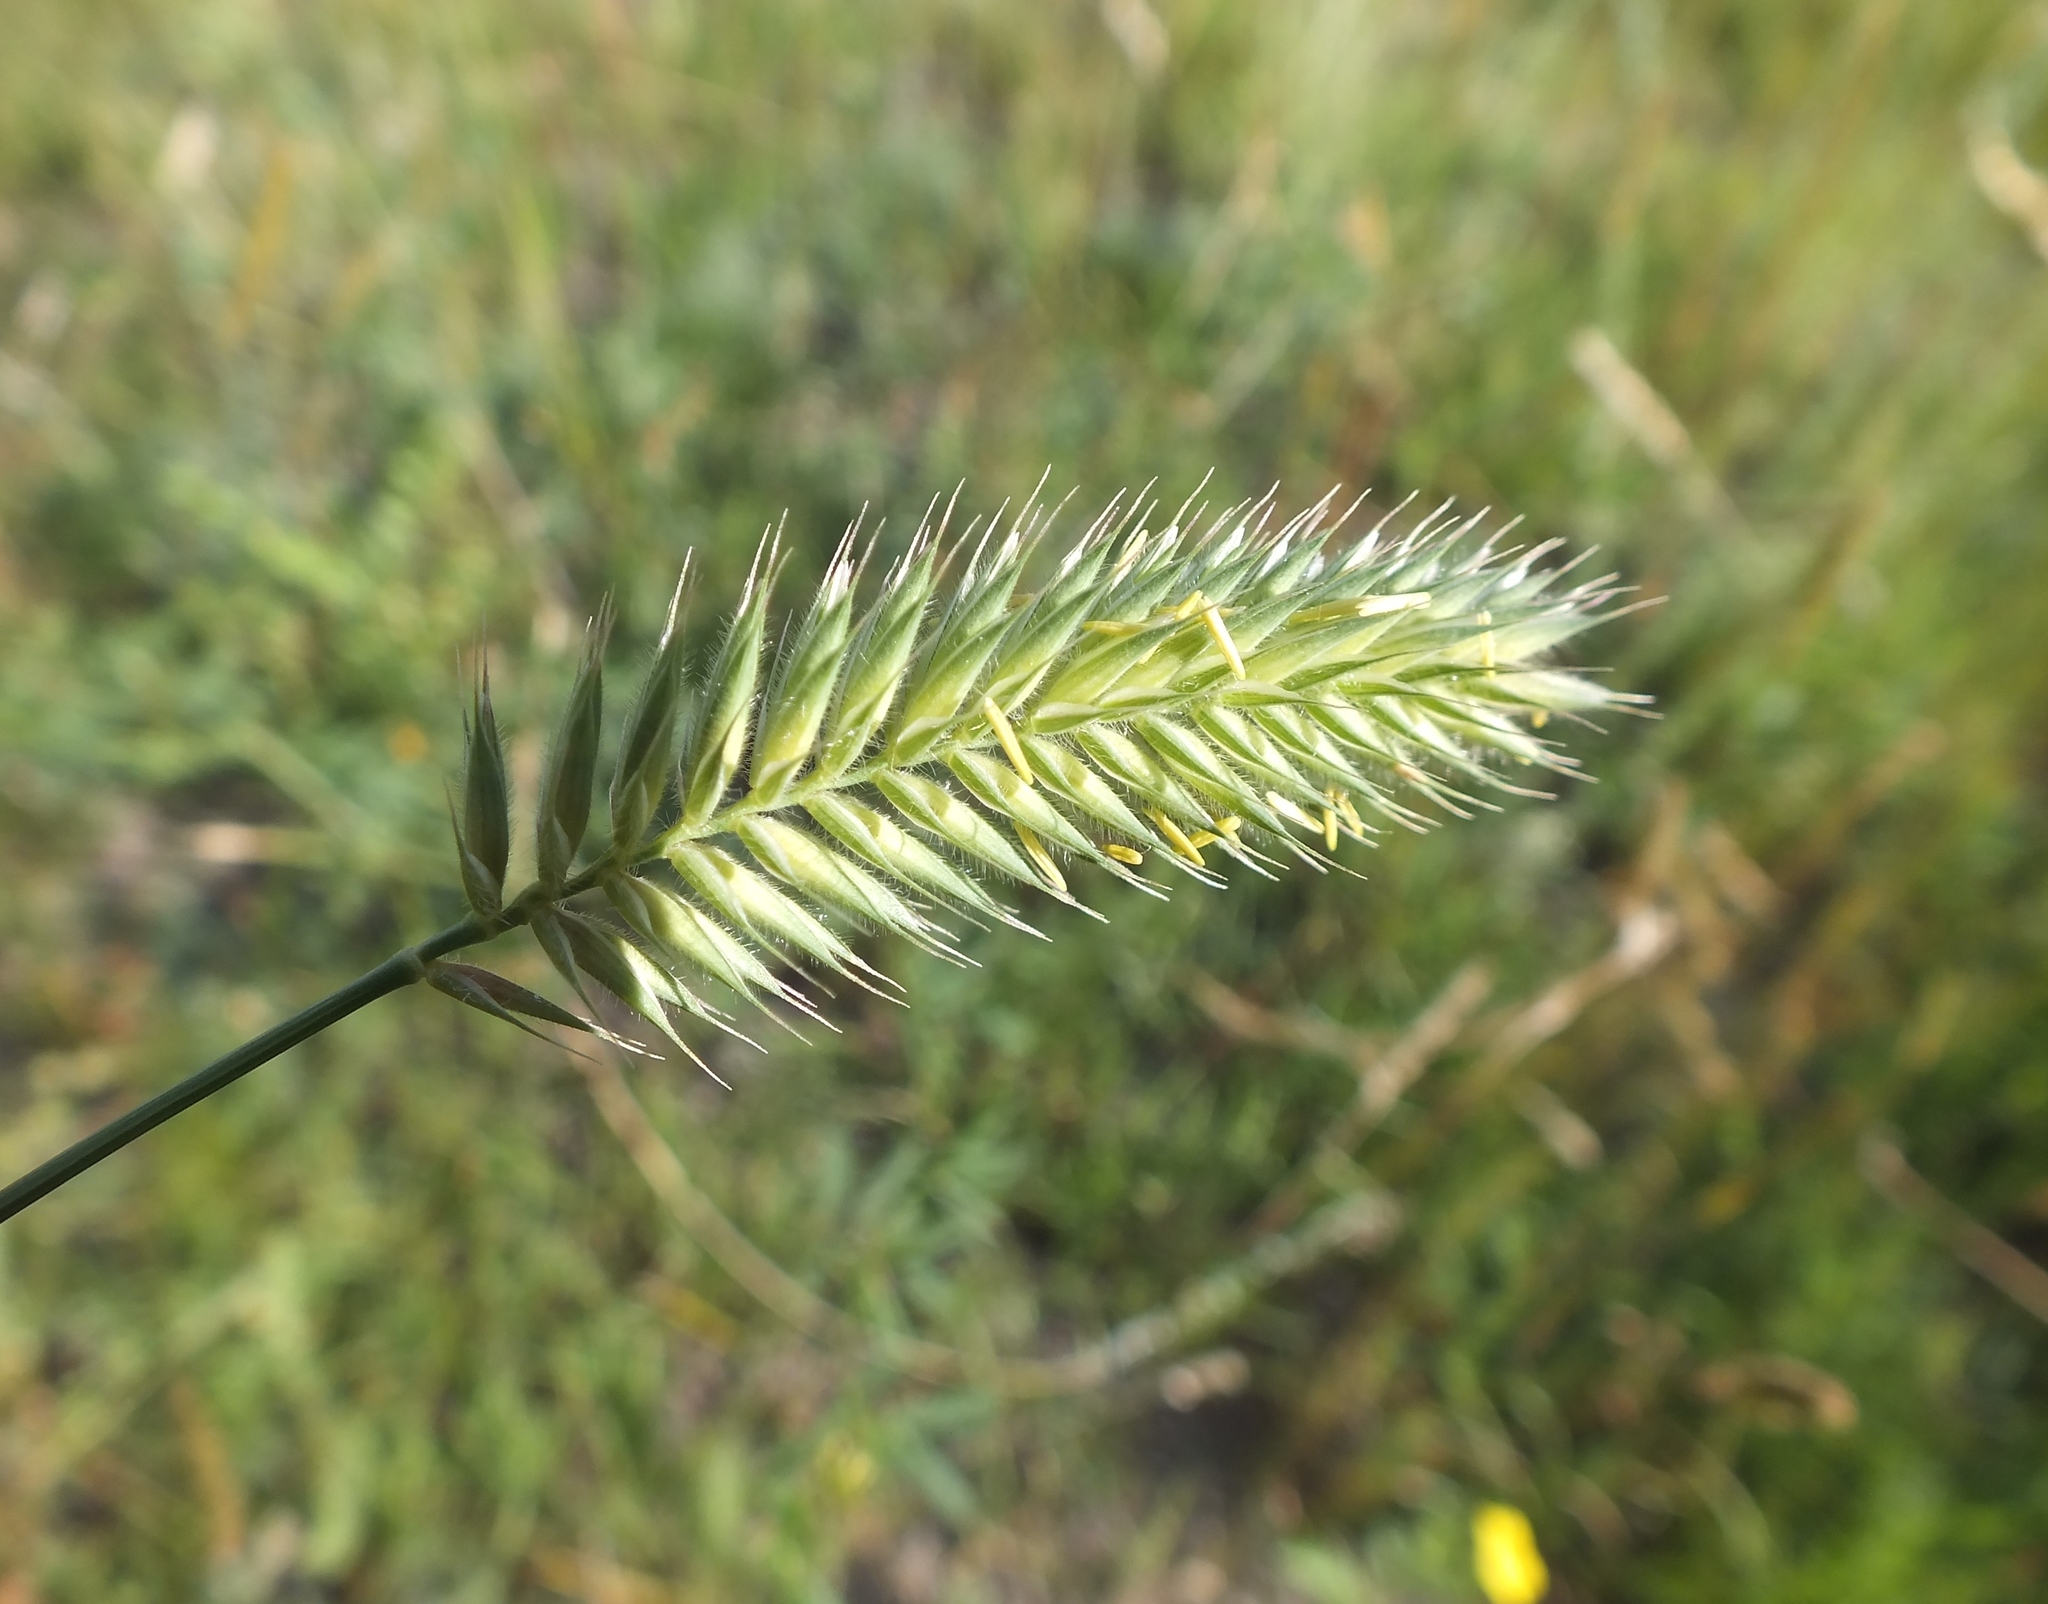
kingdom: Plantae
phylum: Tracheophyta
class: Liliopsida
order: Poales
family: Poaceae
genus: Agropyron
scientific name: Agropyron cristatum
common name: Crested wheatgrass
